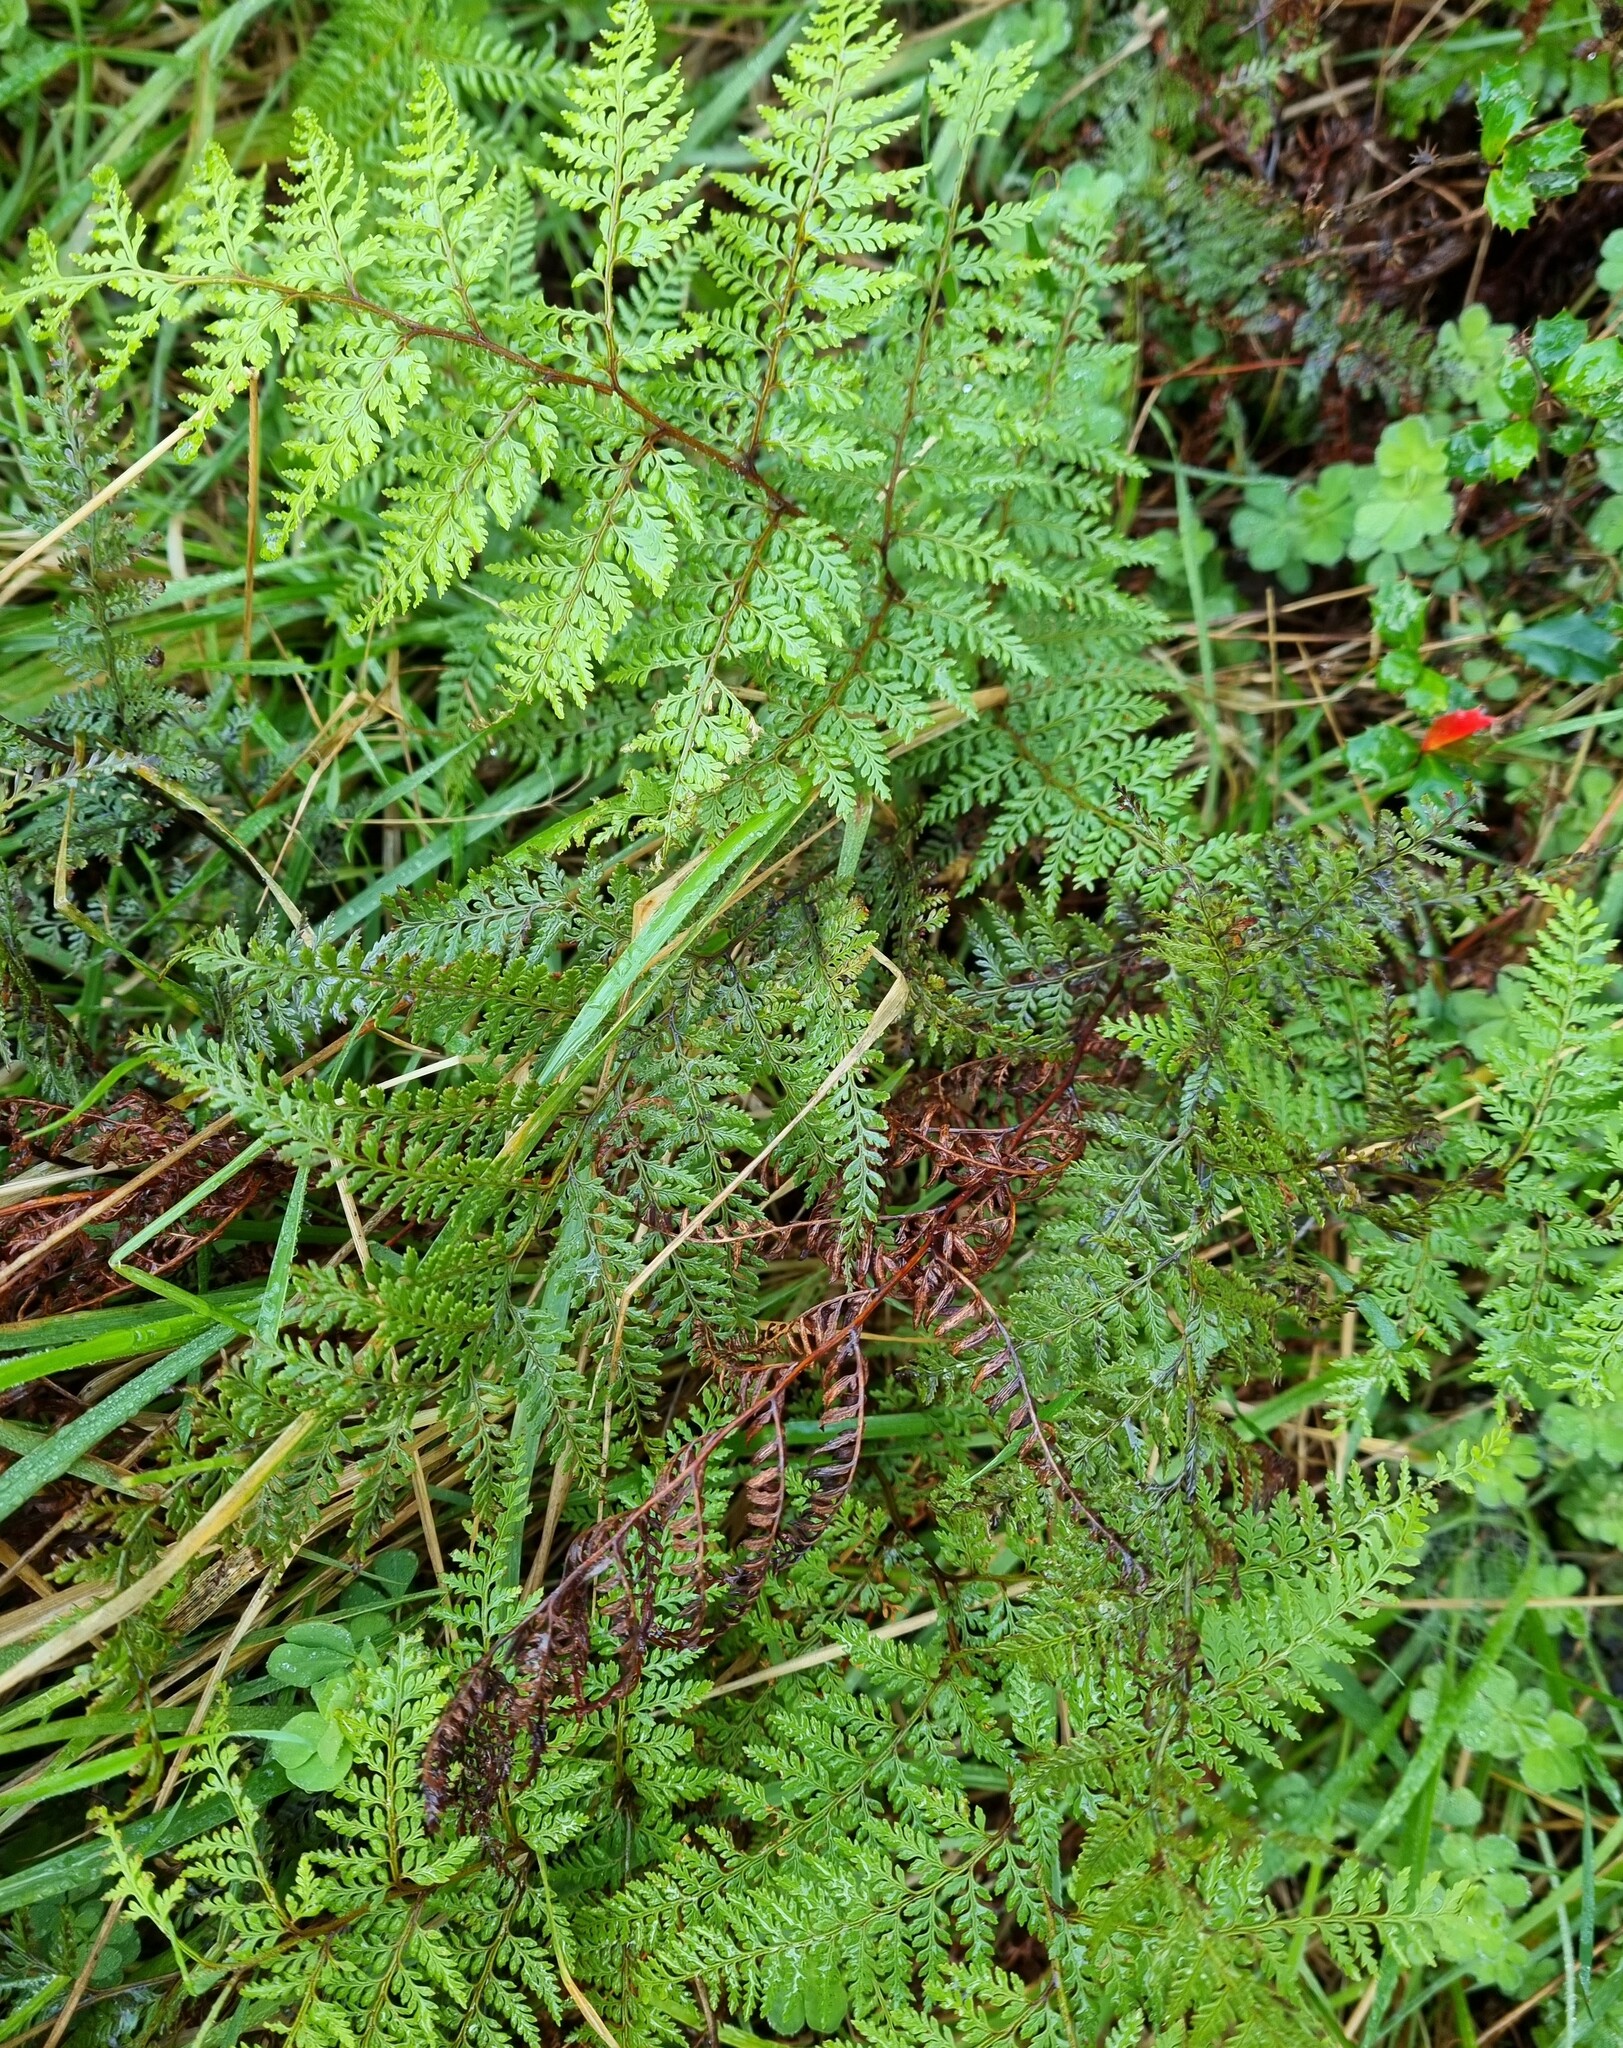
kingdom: Plantae
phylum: Tracheophyta
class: Polypodiopsida
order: Polypodiales
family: Dennstaedtiaceae
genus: Paesia
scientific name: Paesia scaberula
